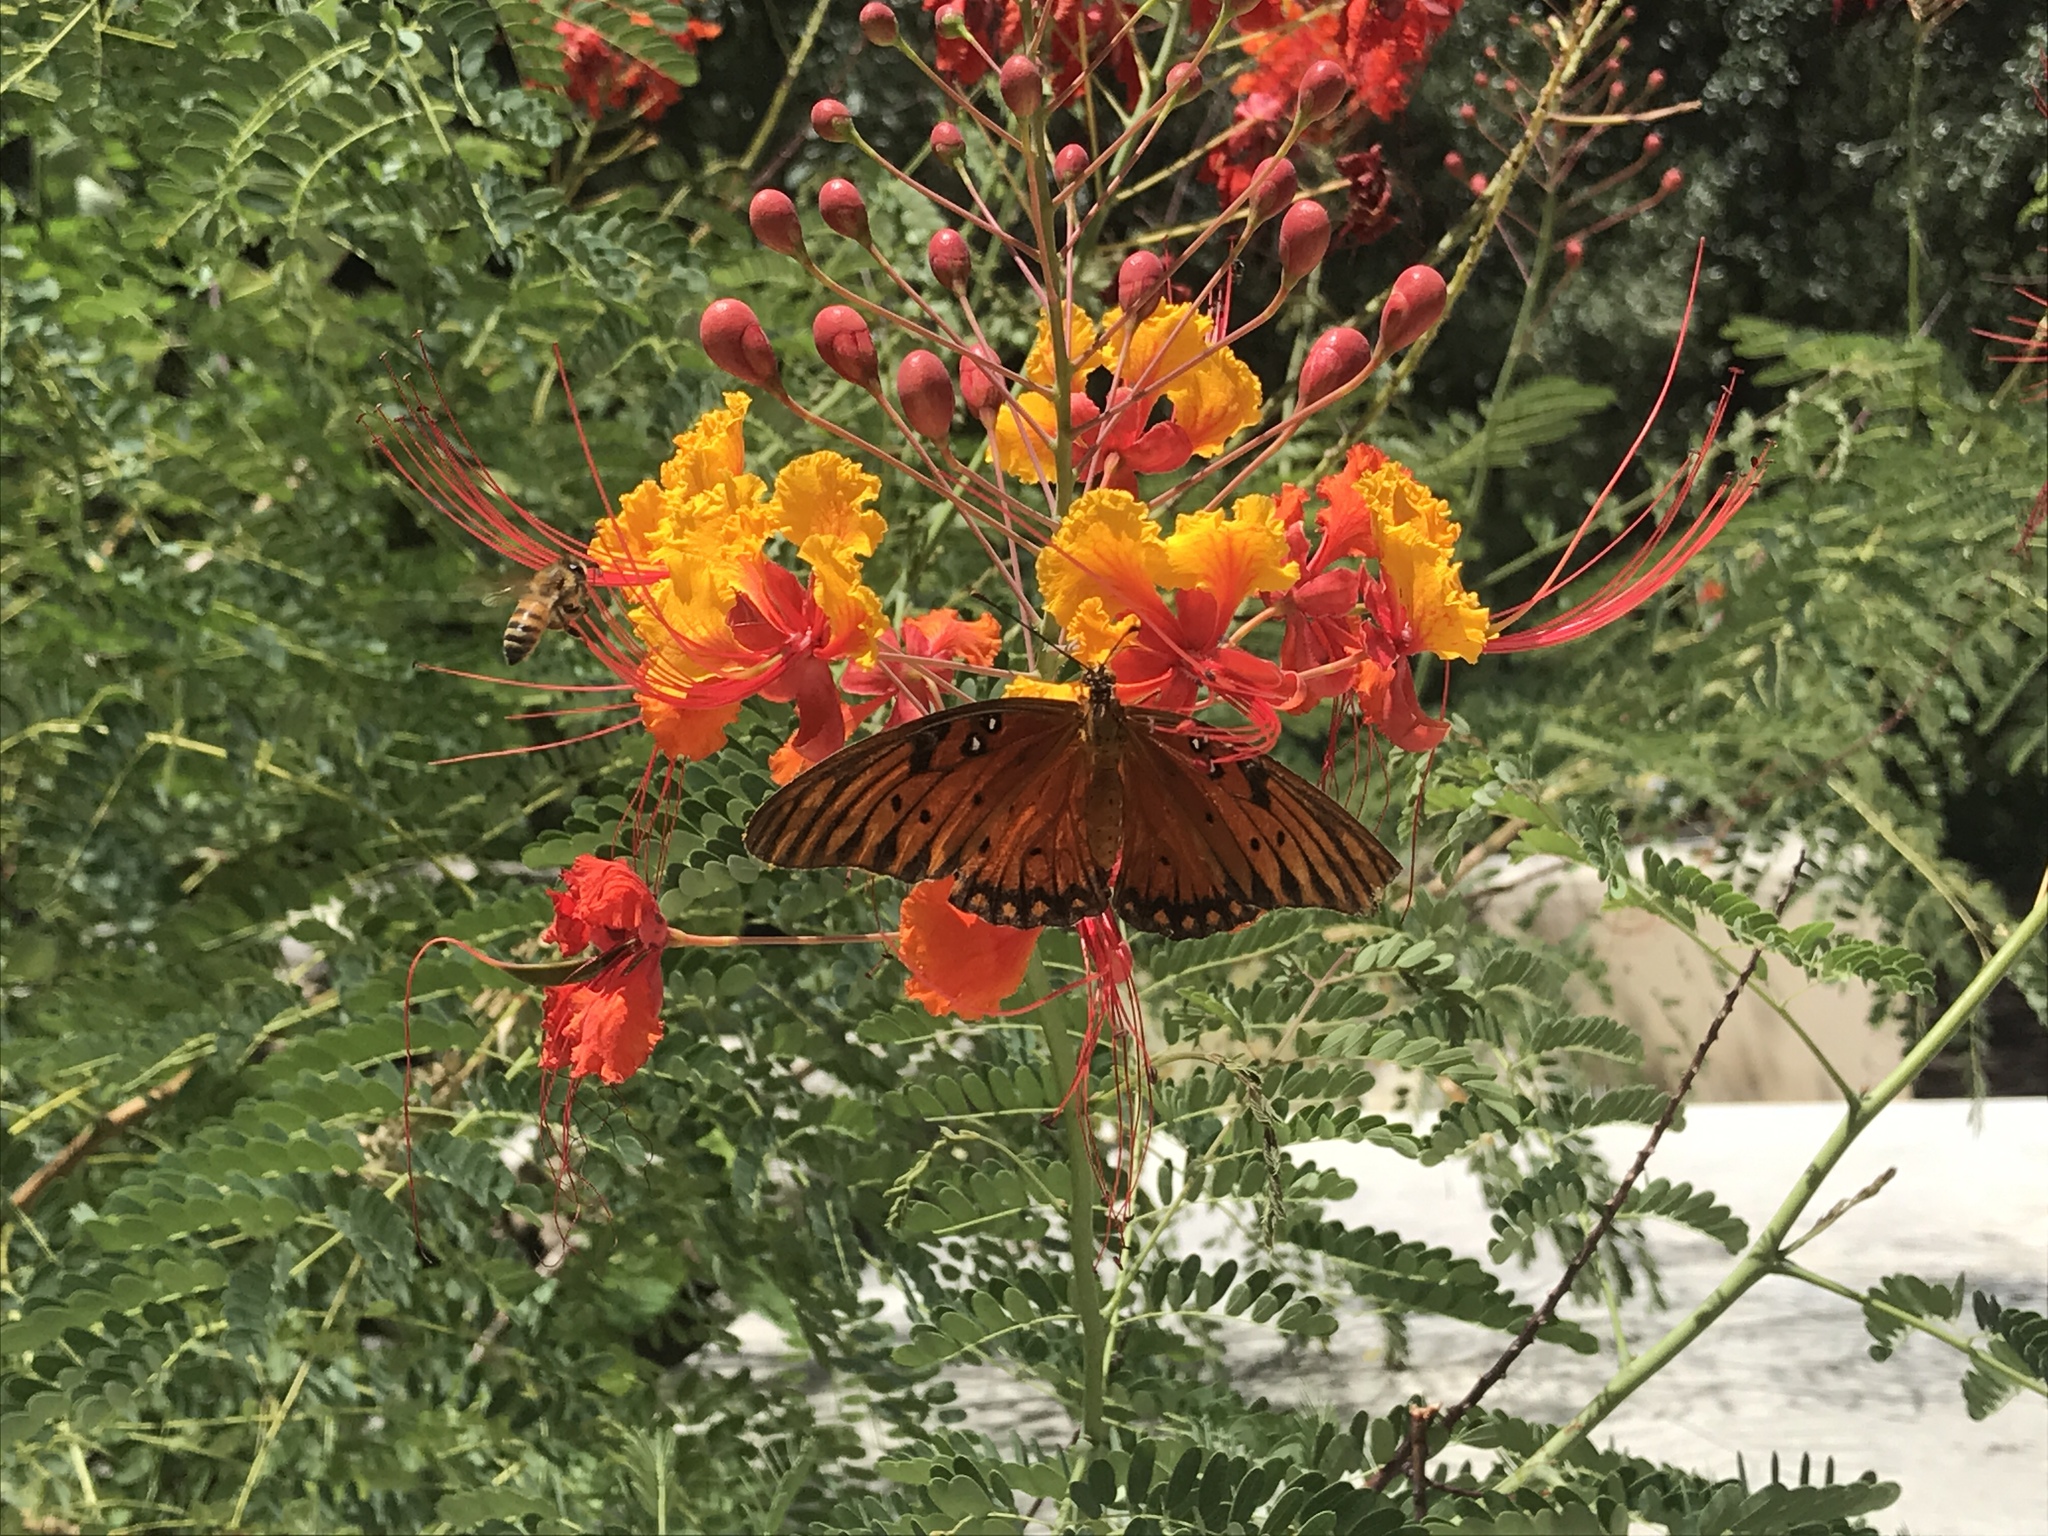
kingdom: Animalia
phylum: Arthropoda
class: Insecta
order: Lepidoptera
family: Nymphalidae
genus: Dione
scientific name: Dione vanillae
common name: Gulf fritillary
